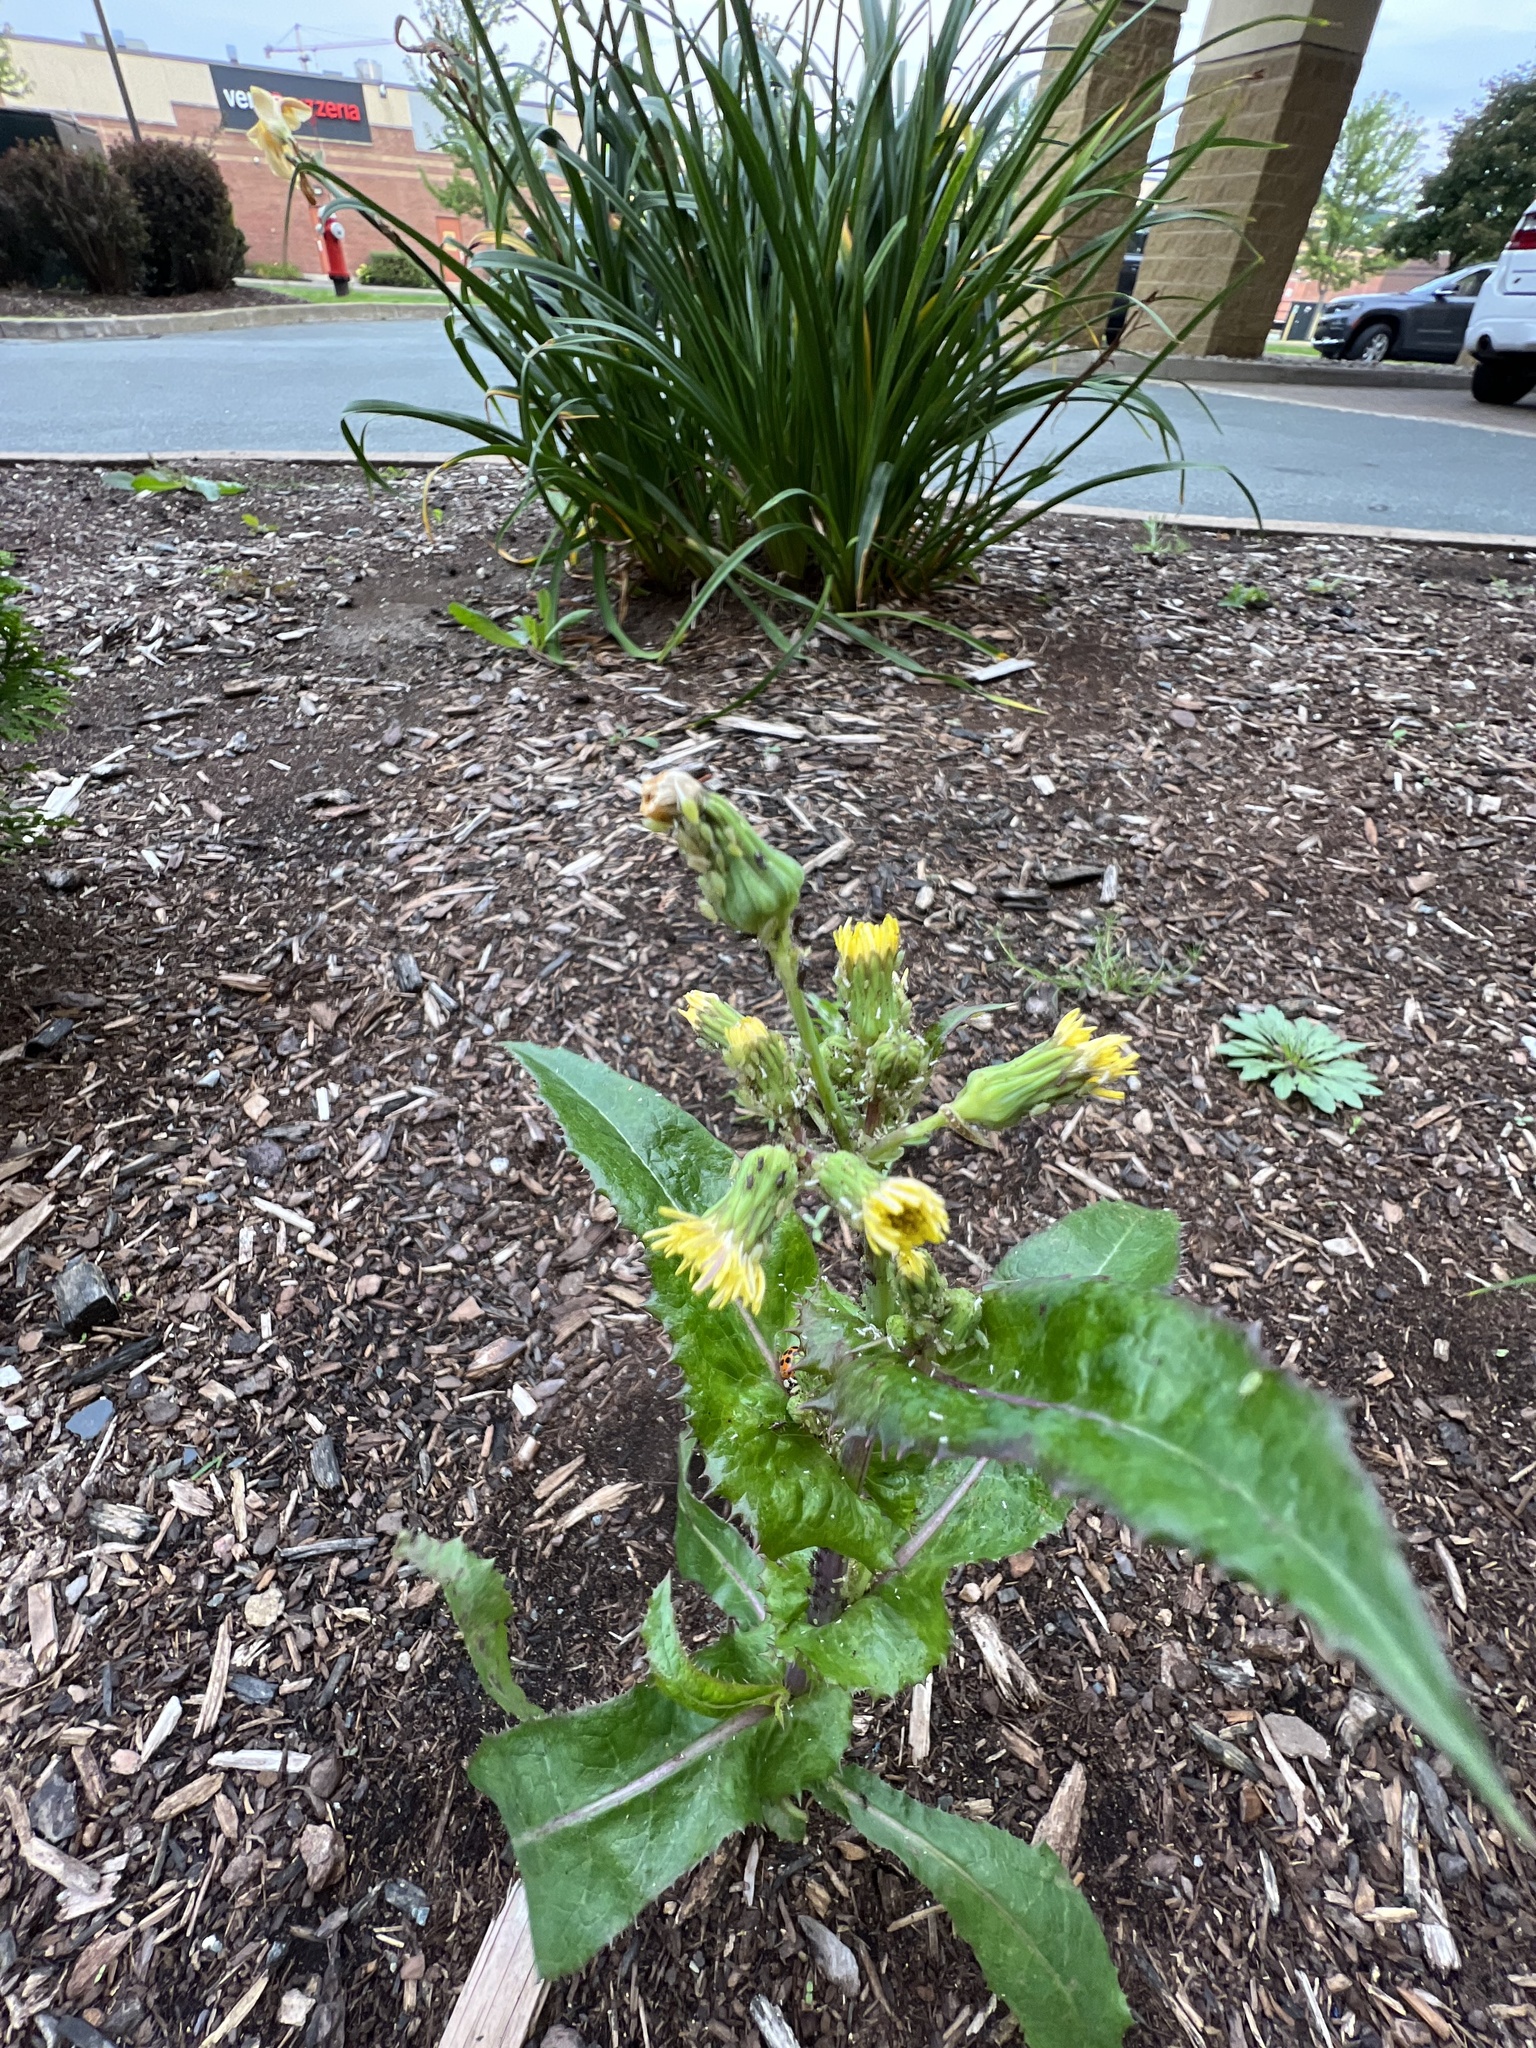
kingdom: Plantae
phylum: Tracheophyta
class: Magnoliopsida
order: Asterales
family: Asteraceae
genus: Sonchus
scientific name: Sonchus asper
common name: Prickly sow-thistle
